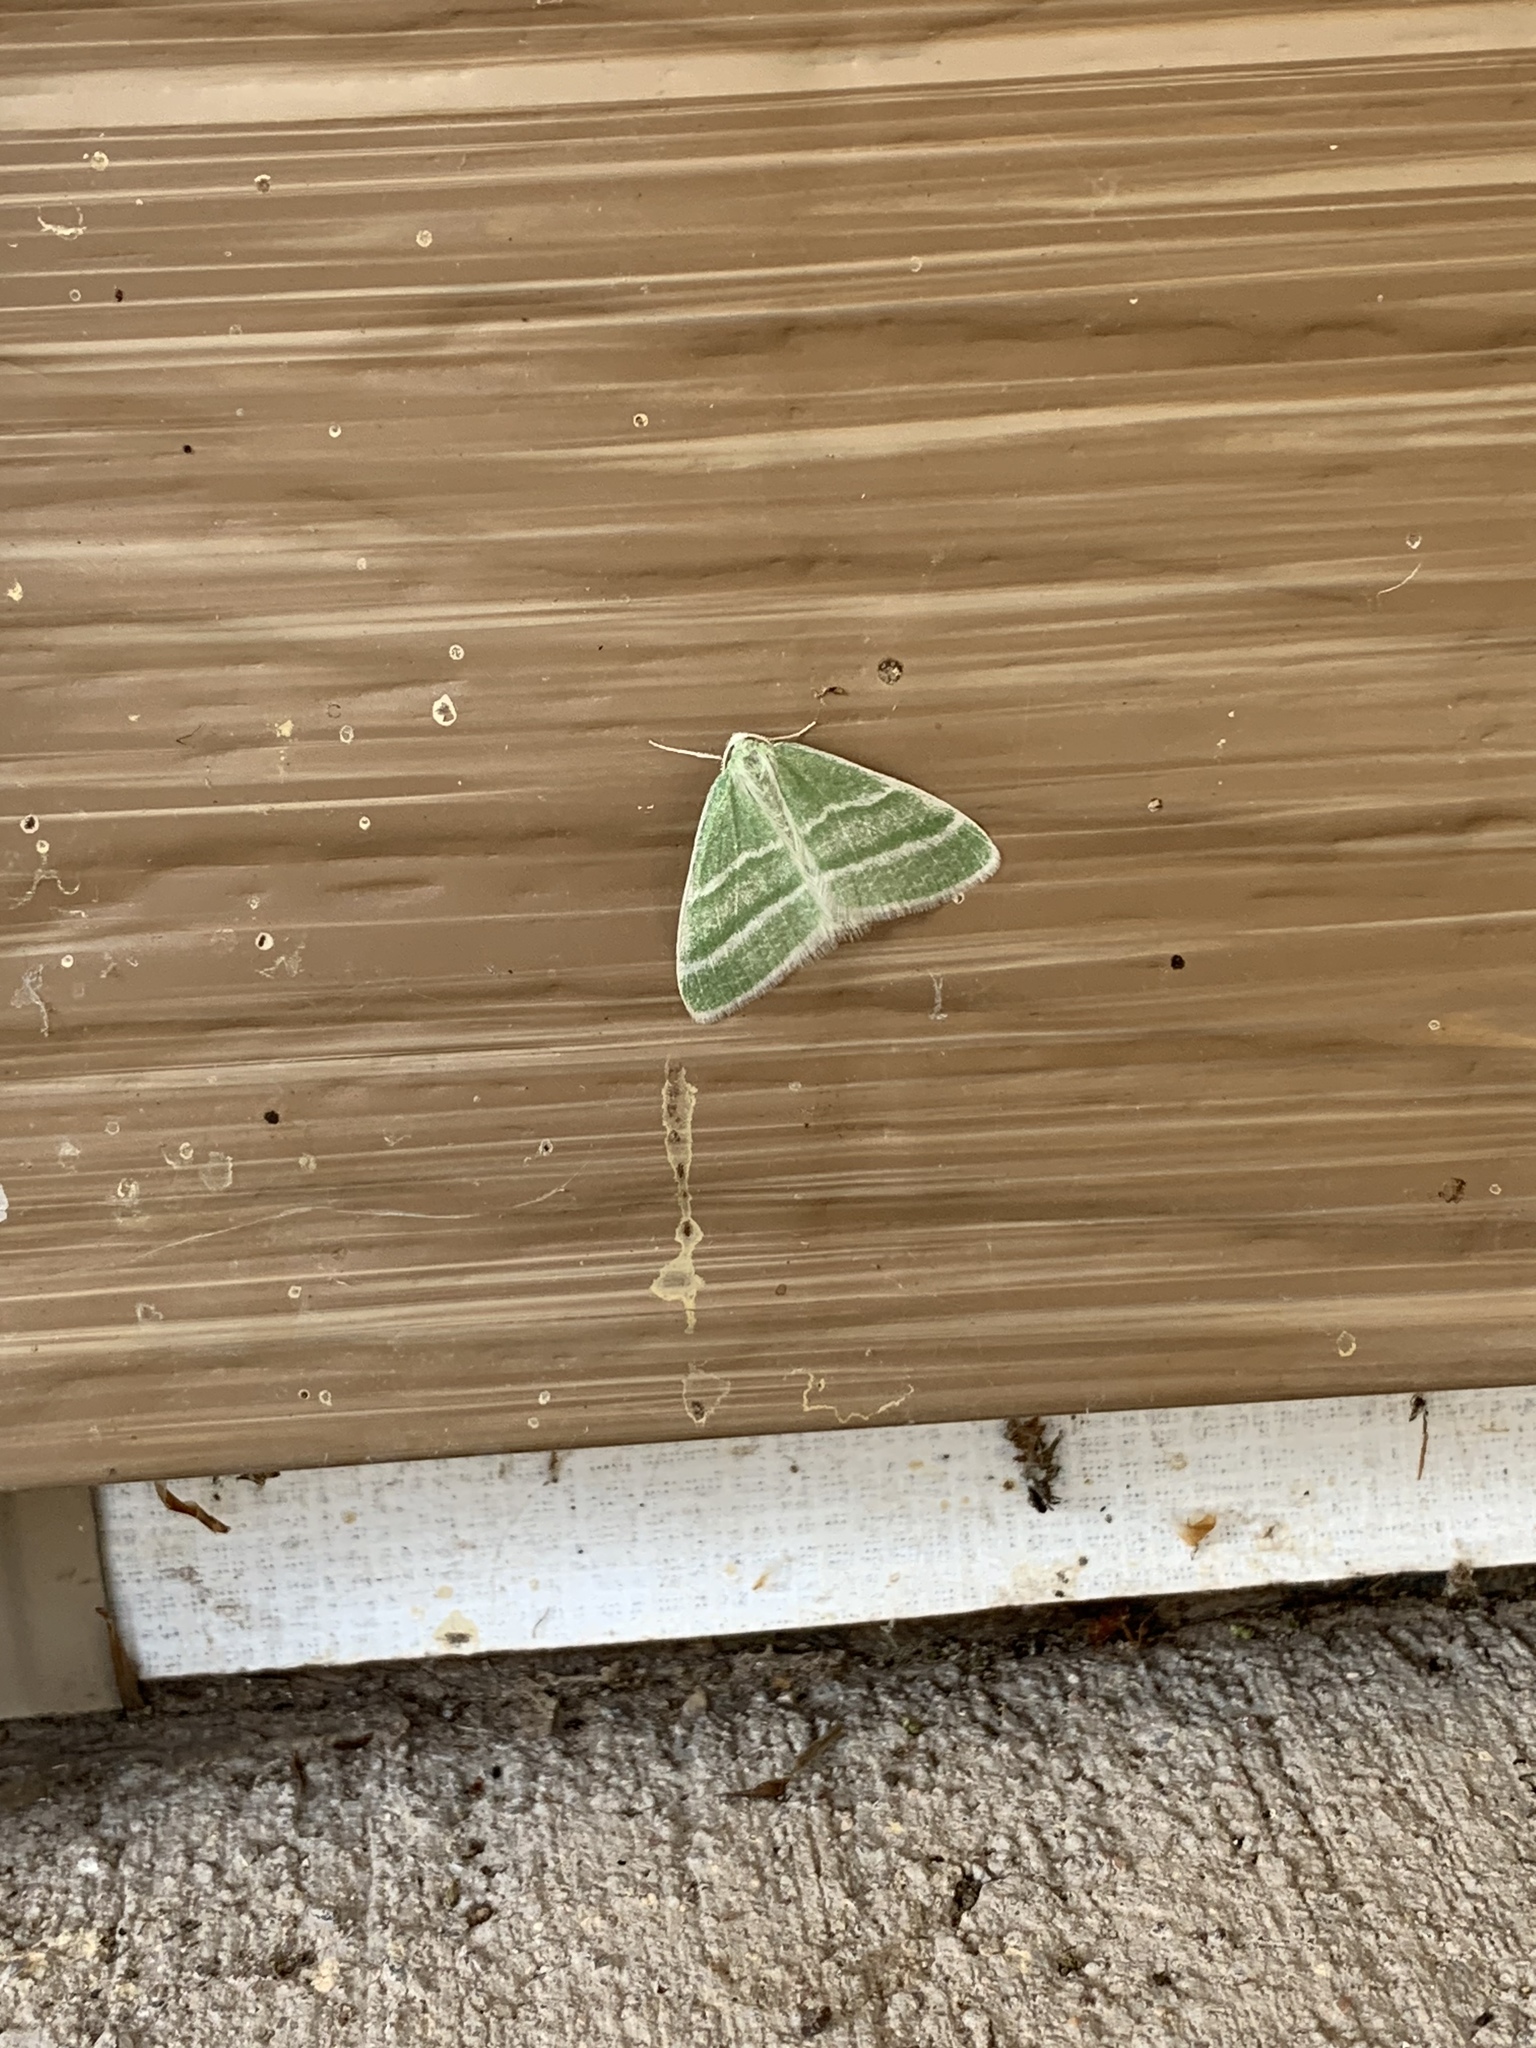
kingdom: Animalia
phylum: Arthropoda
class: Insecta
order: Lepidoptera
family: Geometridae
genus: Nemoria
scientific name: Nemoria diamesa
